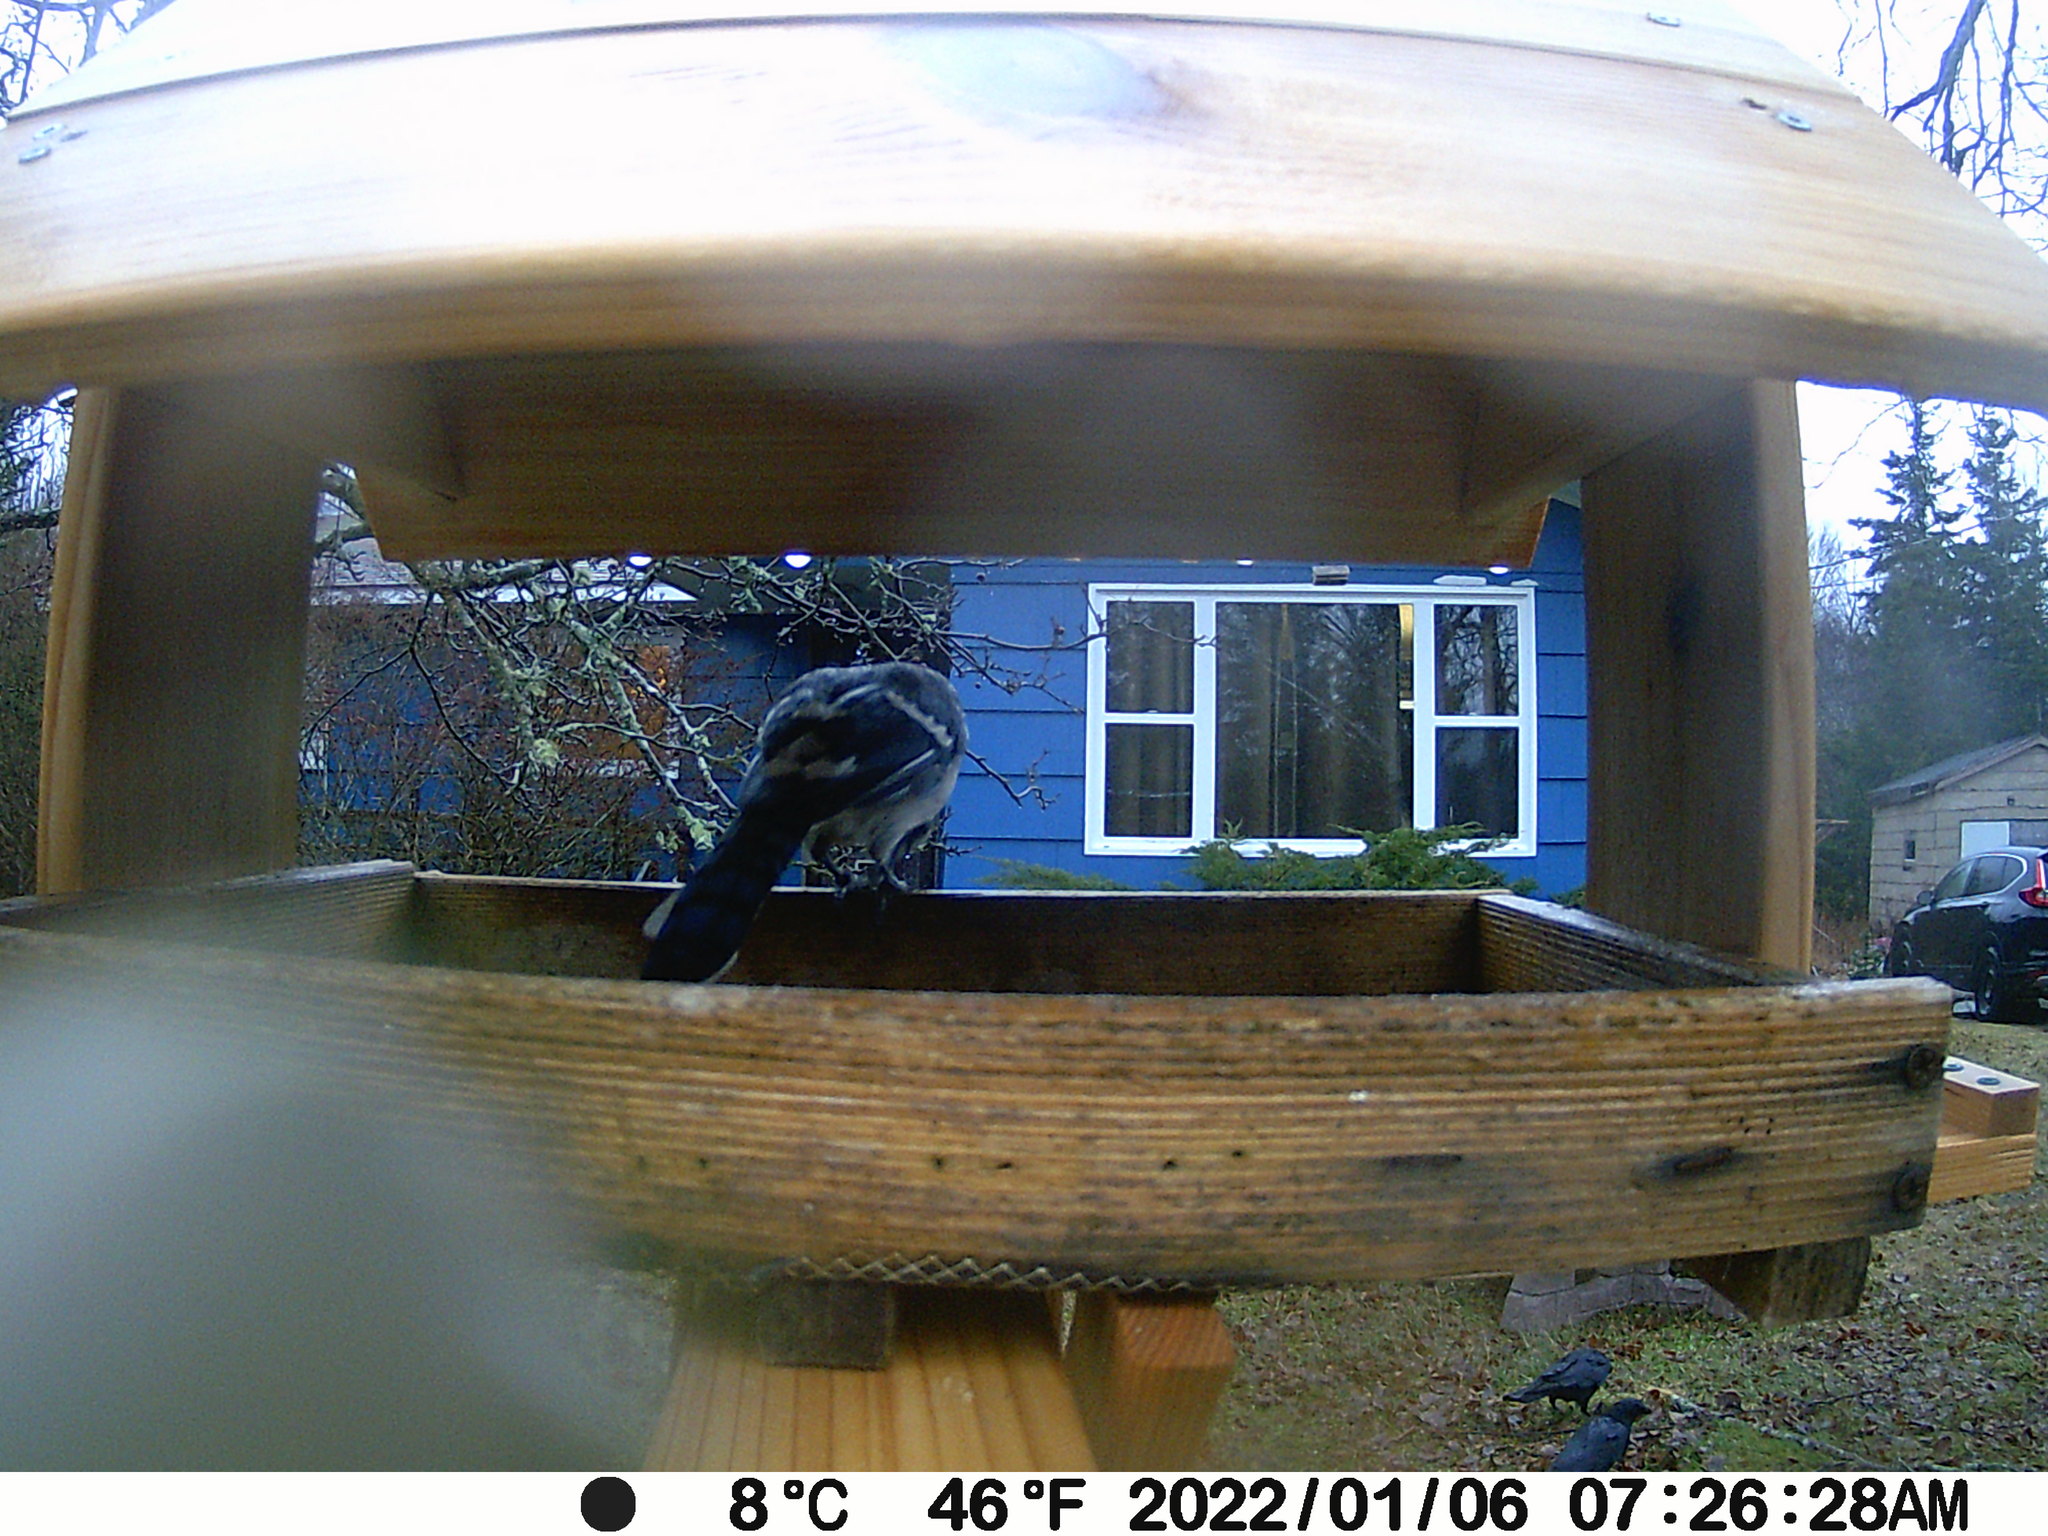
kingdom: Animalia
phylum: Chordata
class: Aves
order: Passeriformes
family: Corvidae
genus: Corvus
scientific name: Corvus brachyrhynchos
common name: American crow
